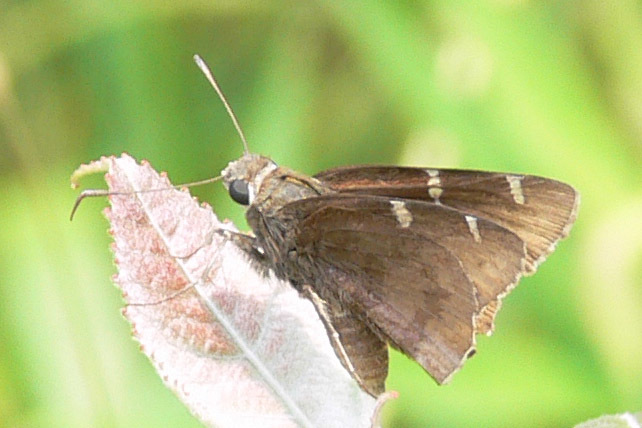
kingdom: Animalia
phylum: Arthropoda
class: Insecta
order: Lepidoptera
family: Hesperiidae
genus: Thorybes
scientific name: Thorybes daunus
